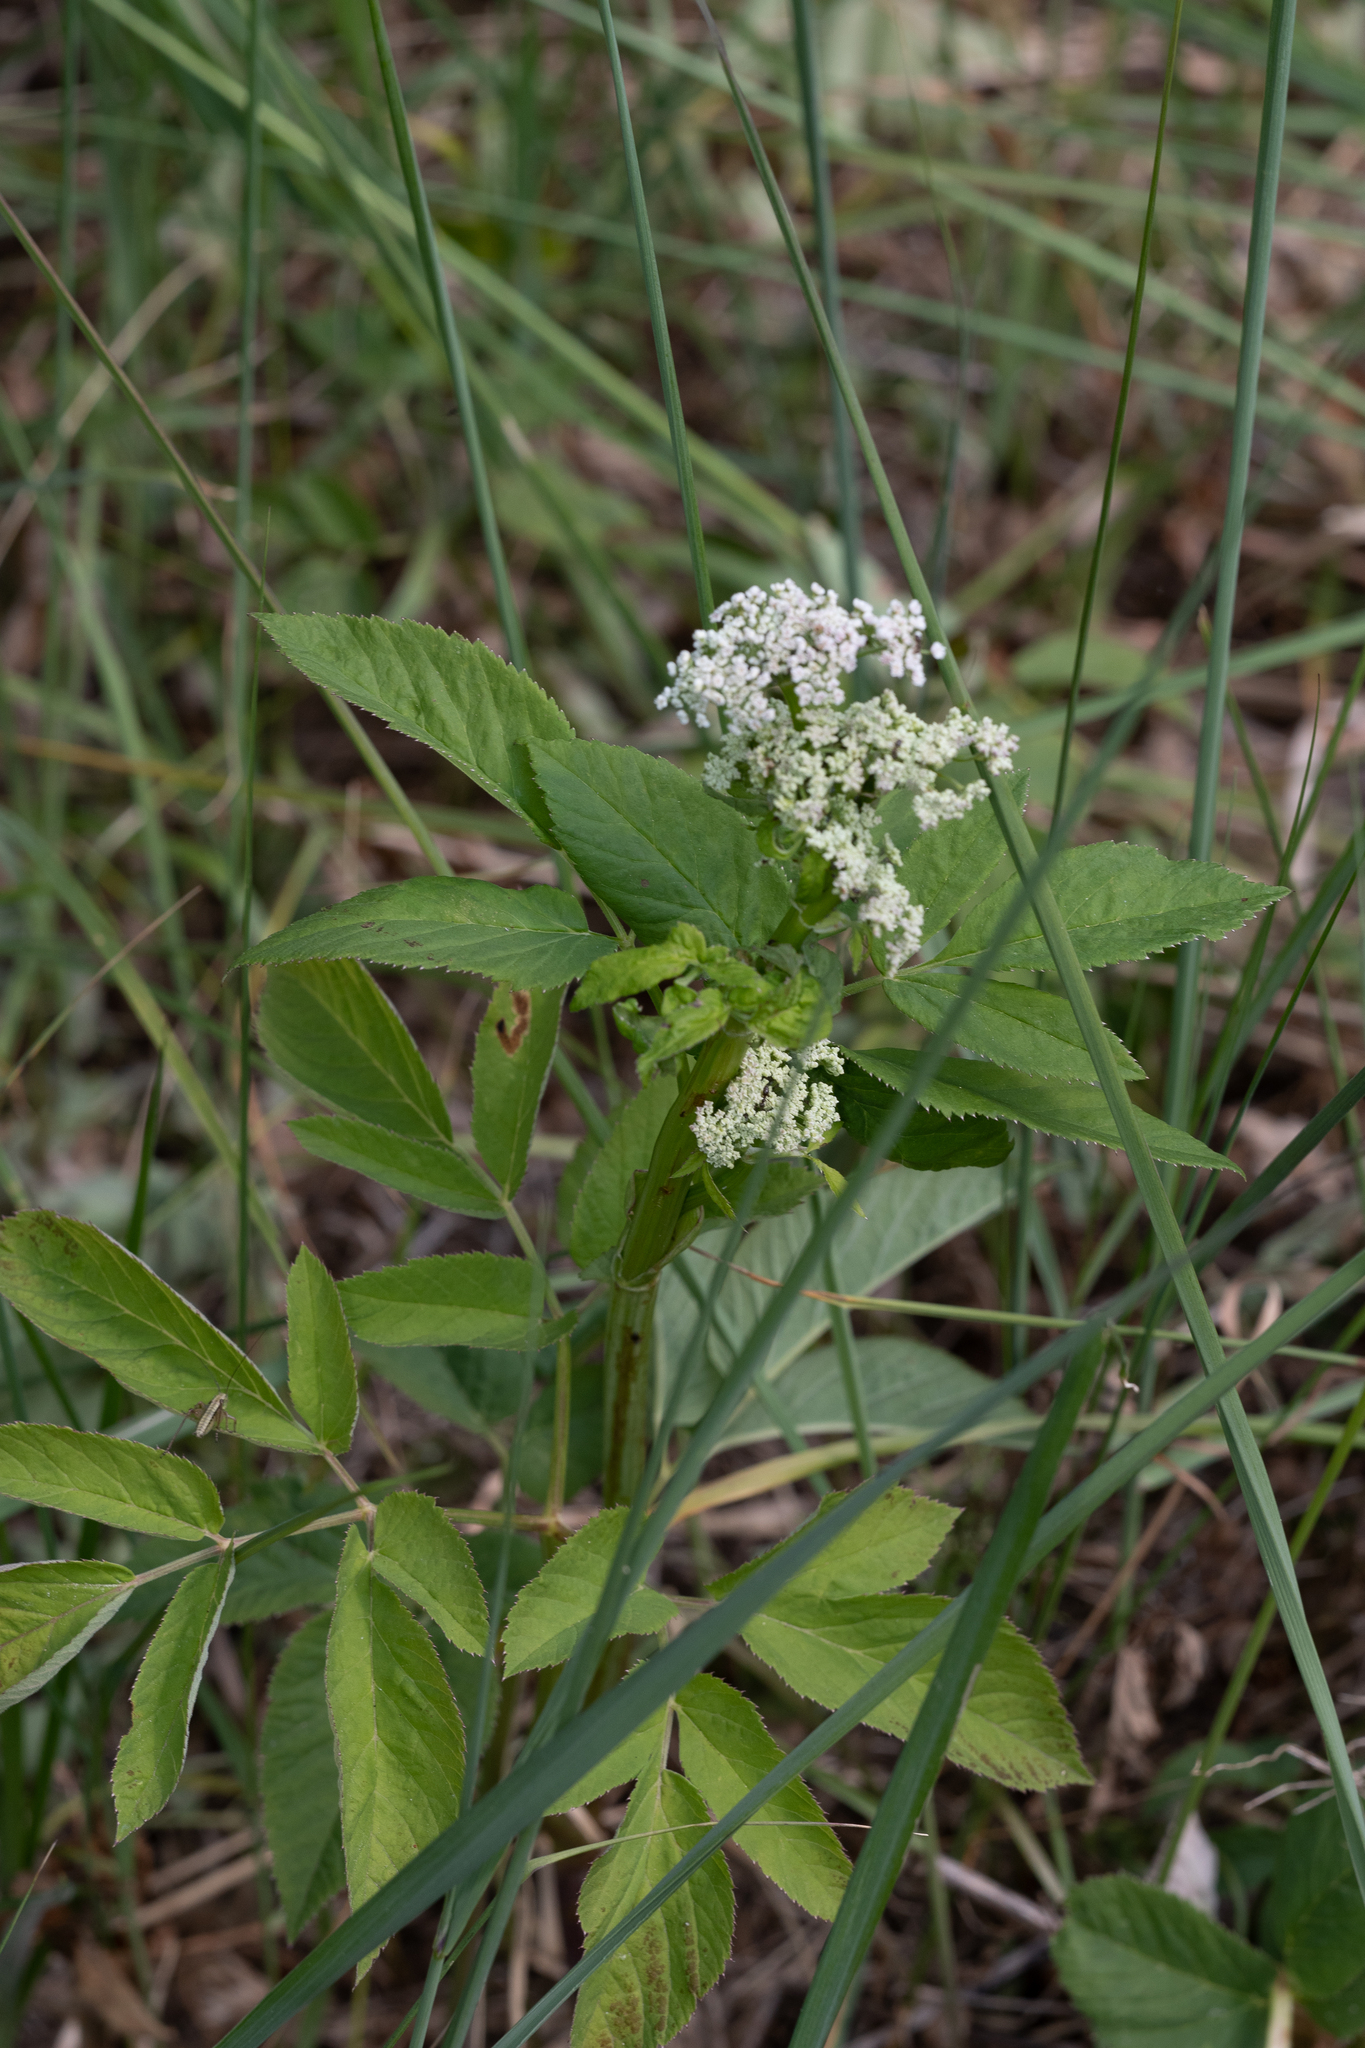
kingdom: Plantae
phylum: Tracheophyta
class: Magnoliopsida
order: Apiales
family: Apiaceae
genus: Aegopodium
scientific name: Aegopodium podagraria
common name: Ground-elder
